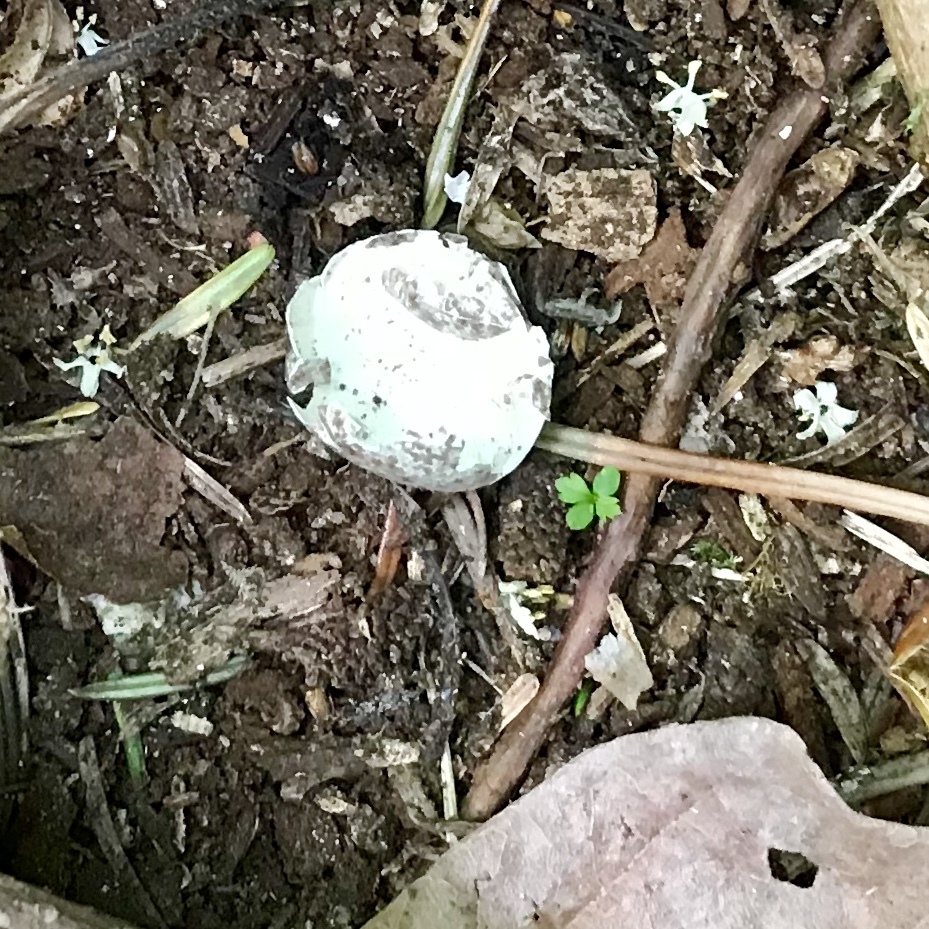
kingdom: Animalia
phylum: Chordata
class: Aves
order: Passeriformes
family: Passeridae
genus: Passer
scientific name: Passer domesticus
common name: House sparrow
